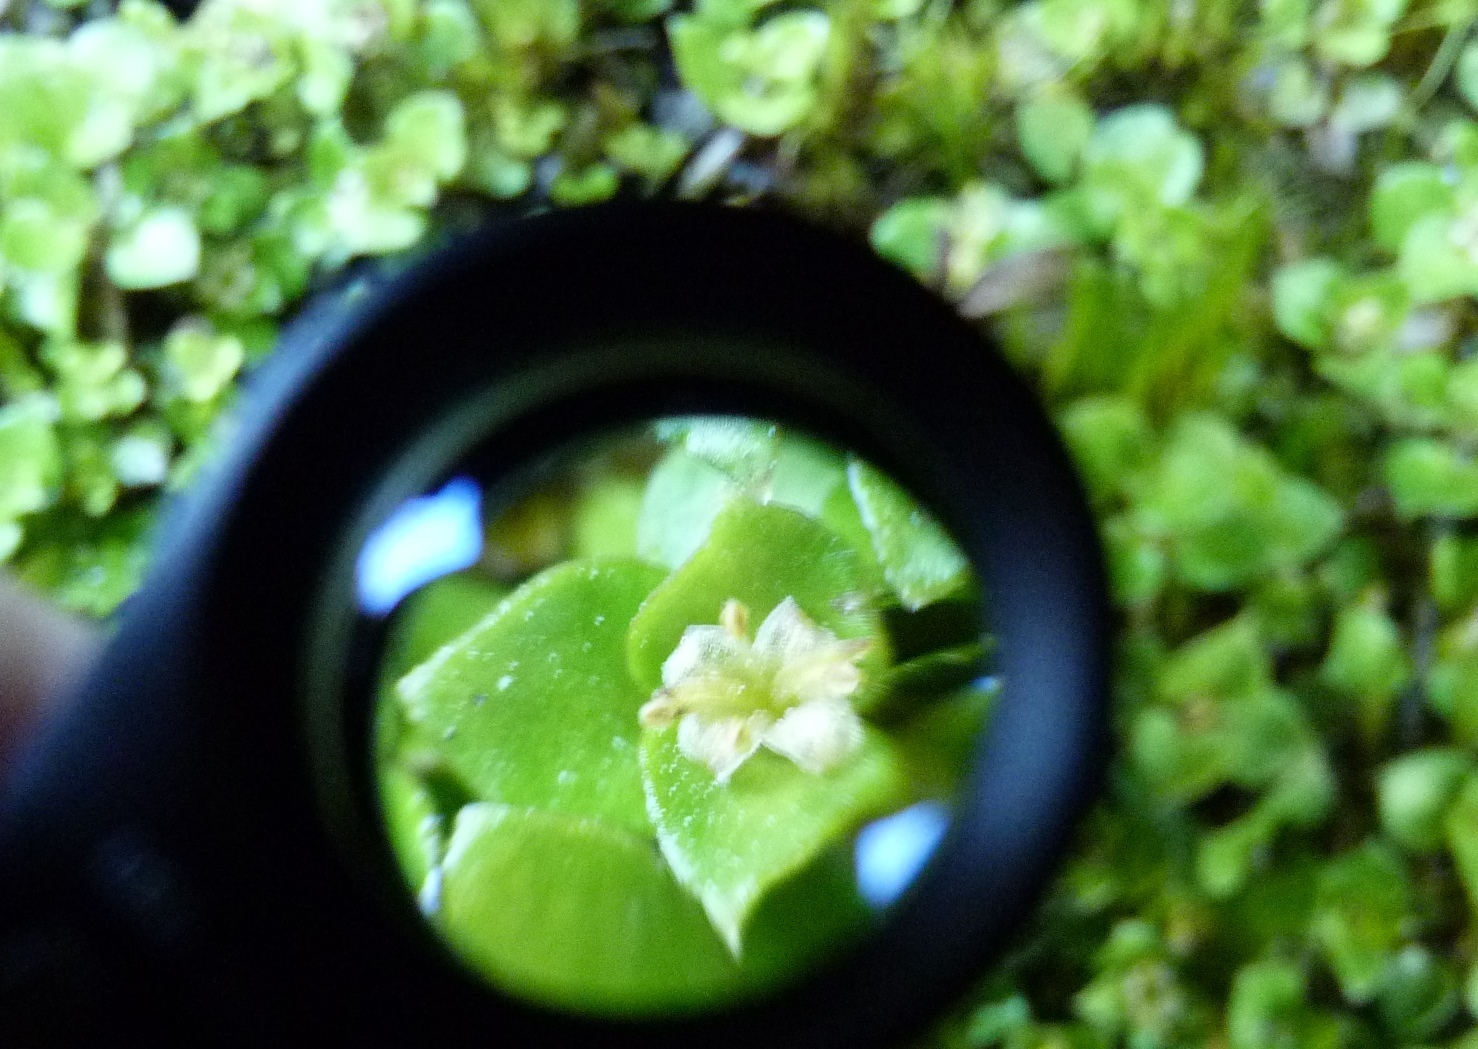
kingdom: Plantae
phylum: Tracheophyta
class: Magnoliopsida
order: Gentianales
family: Rubiaceae
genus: Nertera
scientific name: Nertera granadensis
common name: Beadplant
